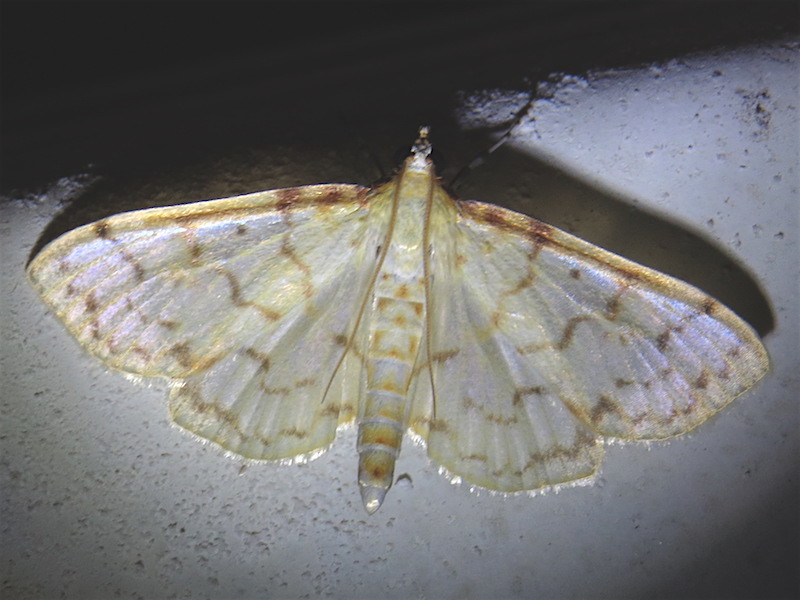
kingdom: Animalia
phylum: Arthropoda
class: Insecta
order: Lepidoptera
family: Crambidae
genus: Polygrammodes
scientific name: Polygrammodes flavidalis
